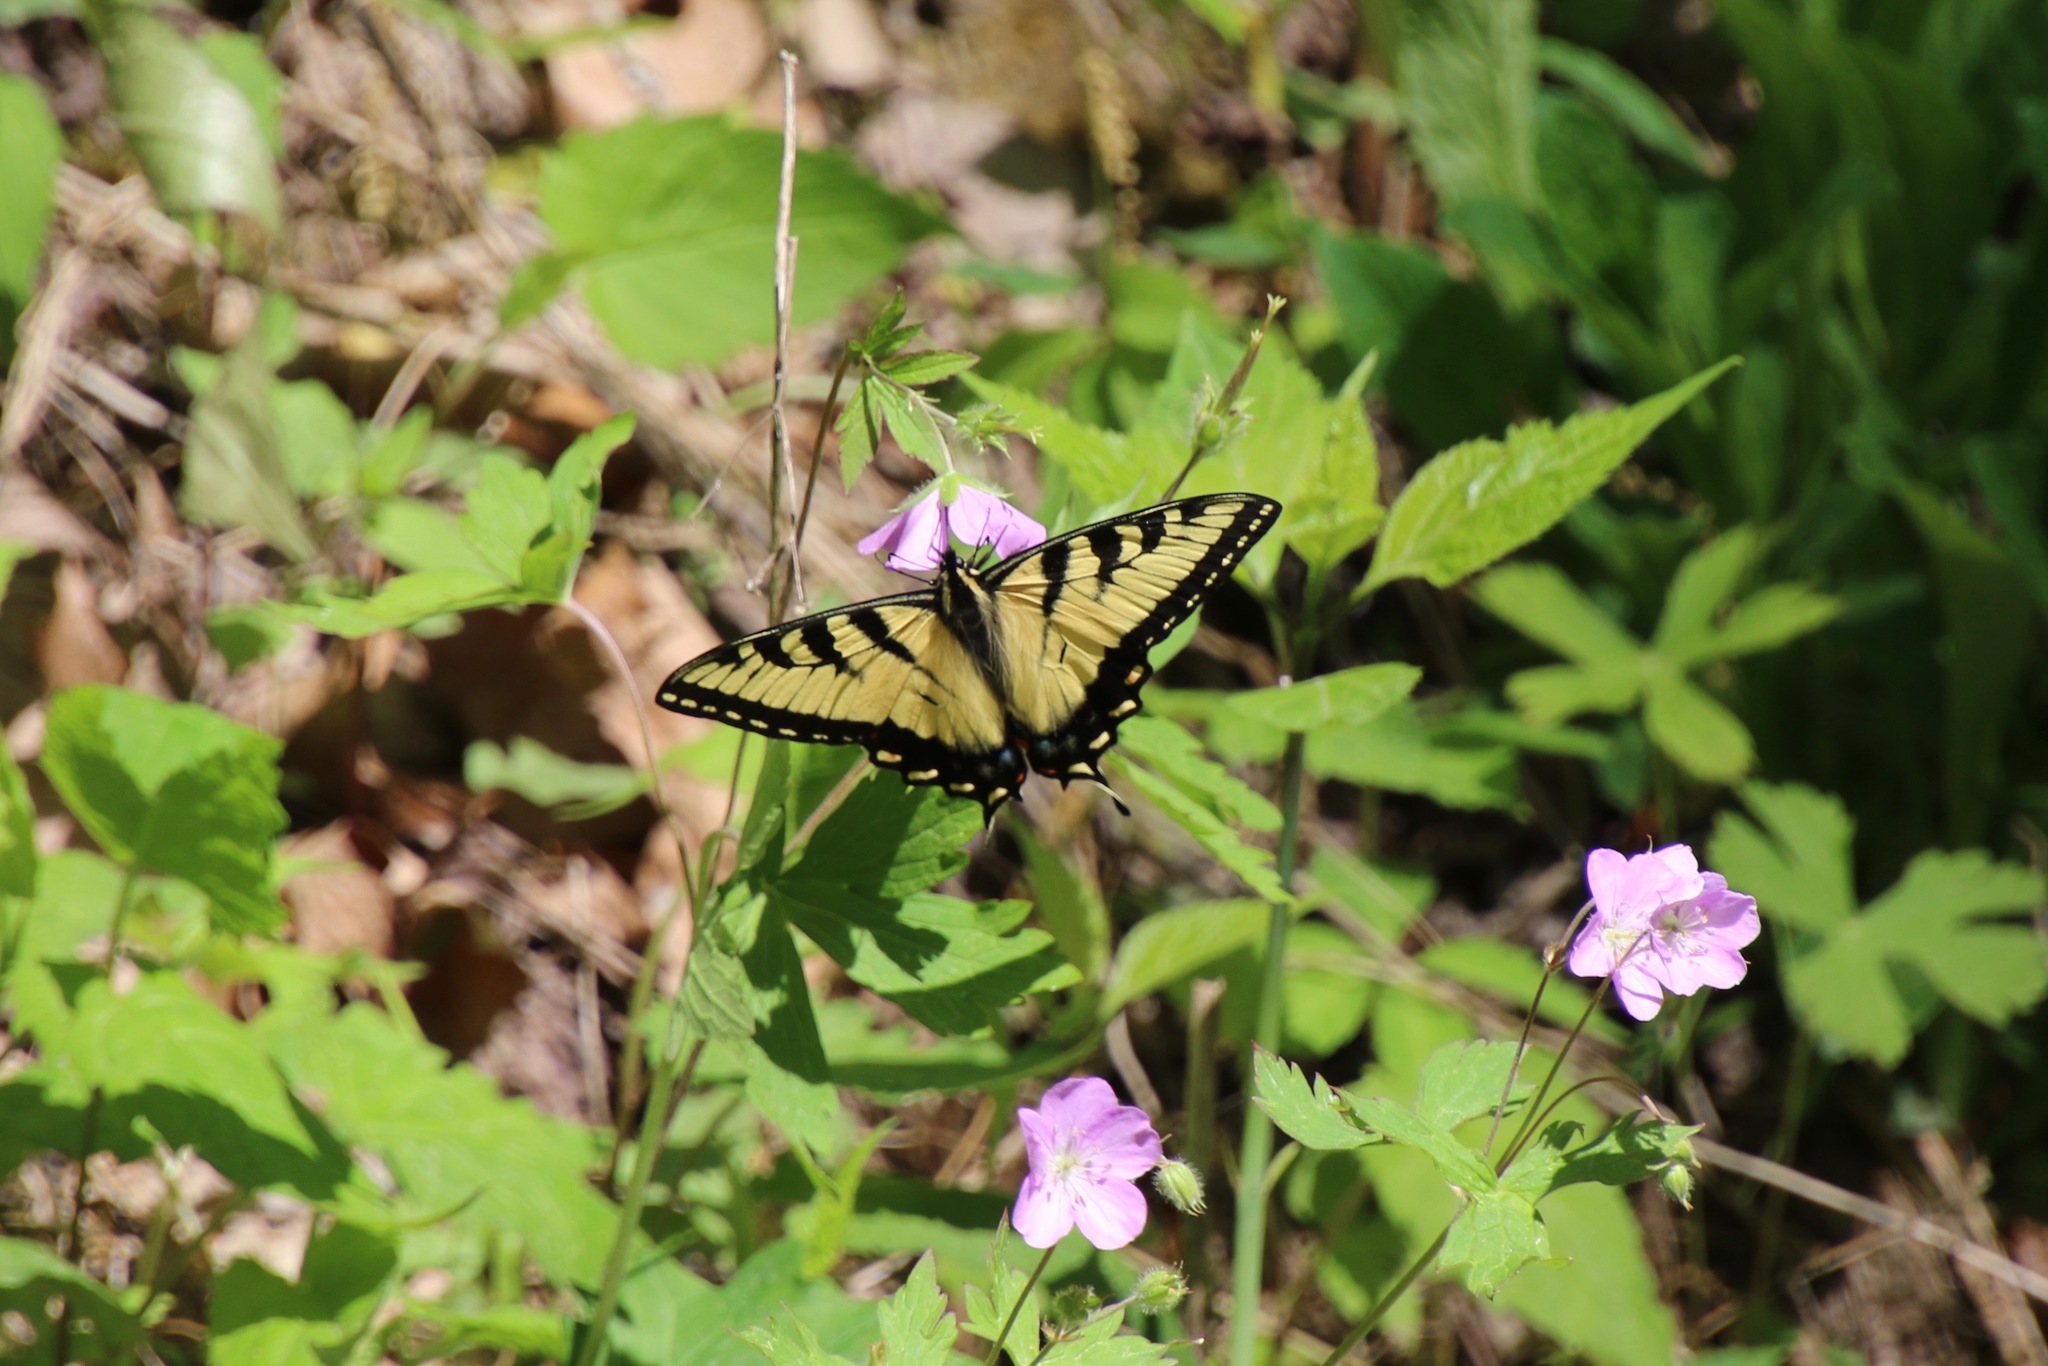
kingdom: Animalia
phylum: Arthropoda
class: Insecta
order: Lepidoptera
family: Papilionidae
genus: Papilio
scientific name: Papilio glaucus
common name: Tiger swallowtail
